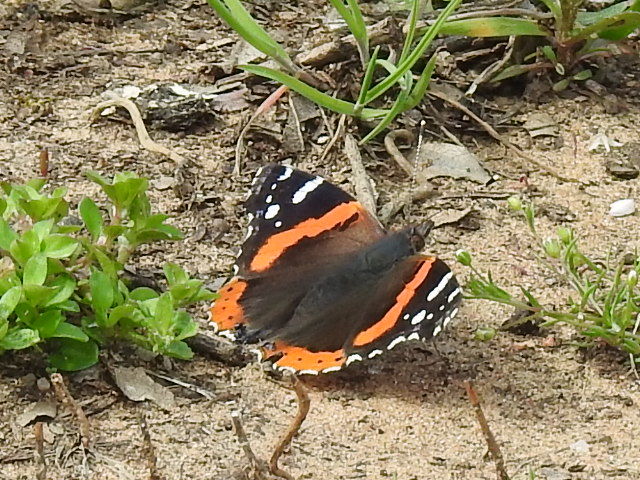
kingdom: Animalia
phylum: Arthropoda
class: Insecta
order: Lepidoptera
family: Nymphalidae
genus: Vanessa
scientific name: Vanessa atalanta
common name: Red admiral
